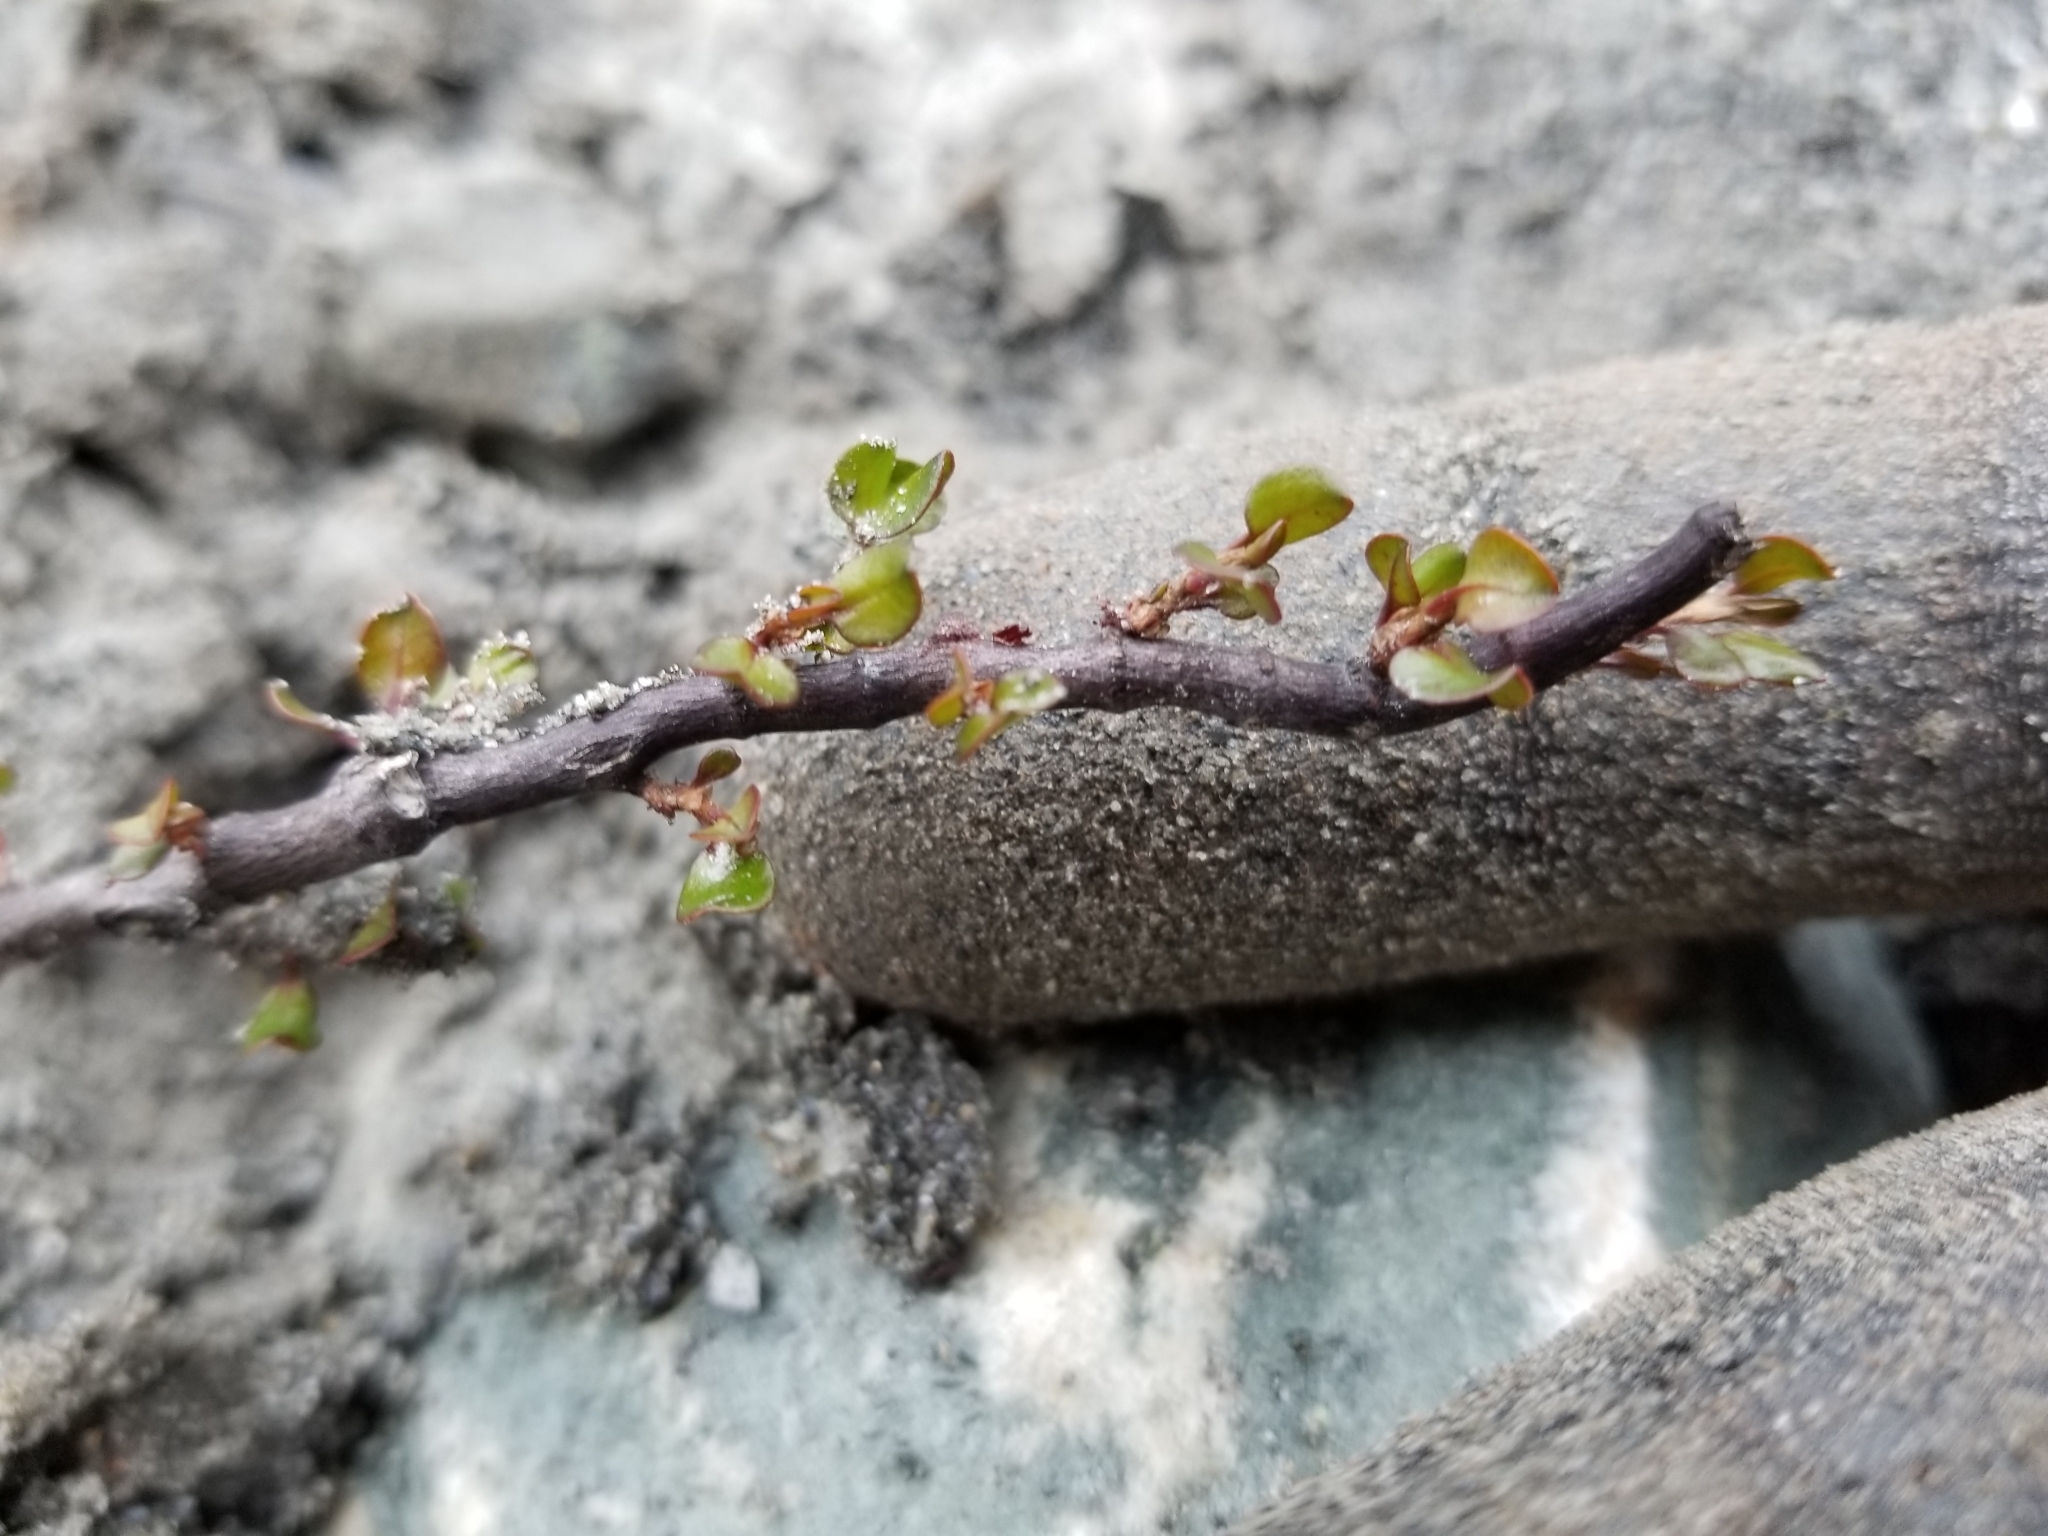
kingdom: Plantae
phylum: Tracheophyta
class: Magnoliopsida
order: Caryophyllales
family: Polygonaceae
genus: Muehlenbeckia
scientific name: Muehlenbeckia axillaris
